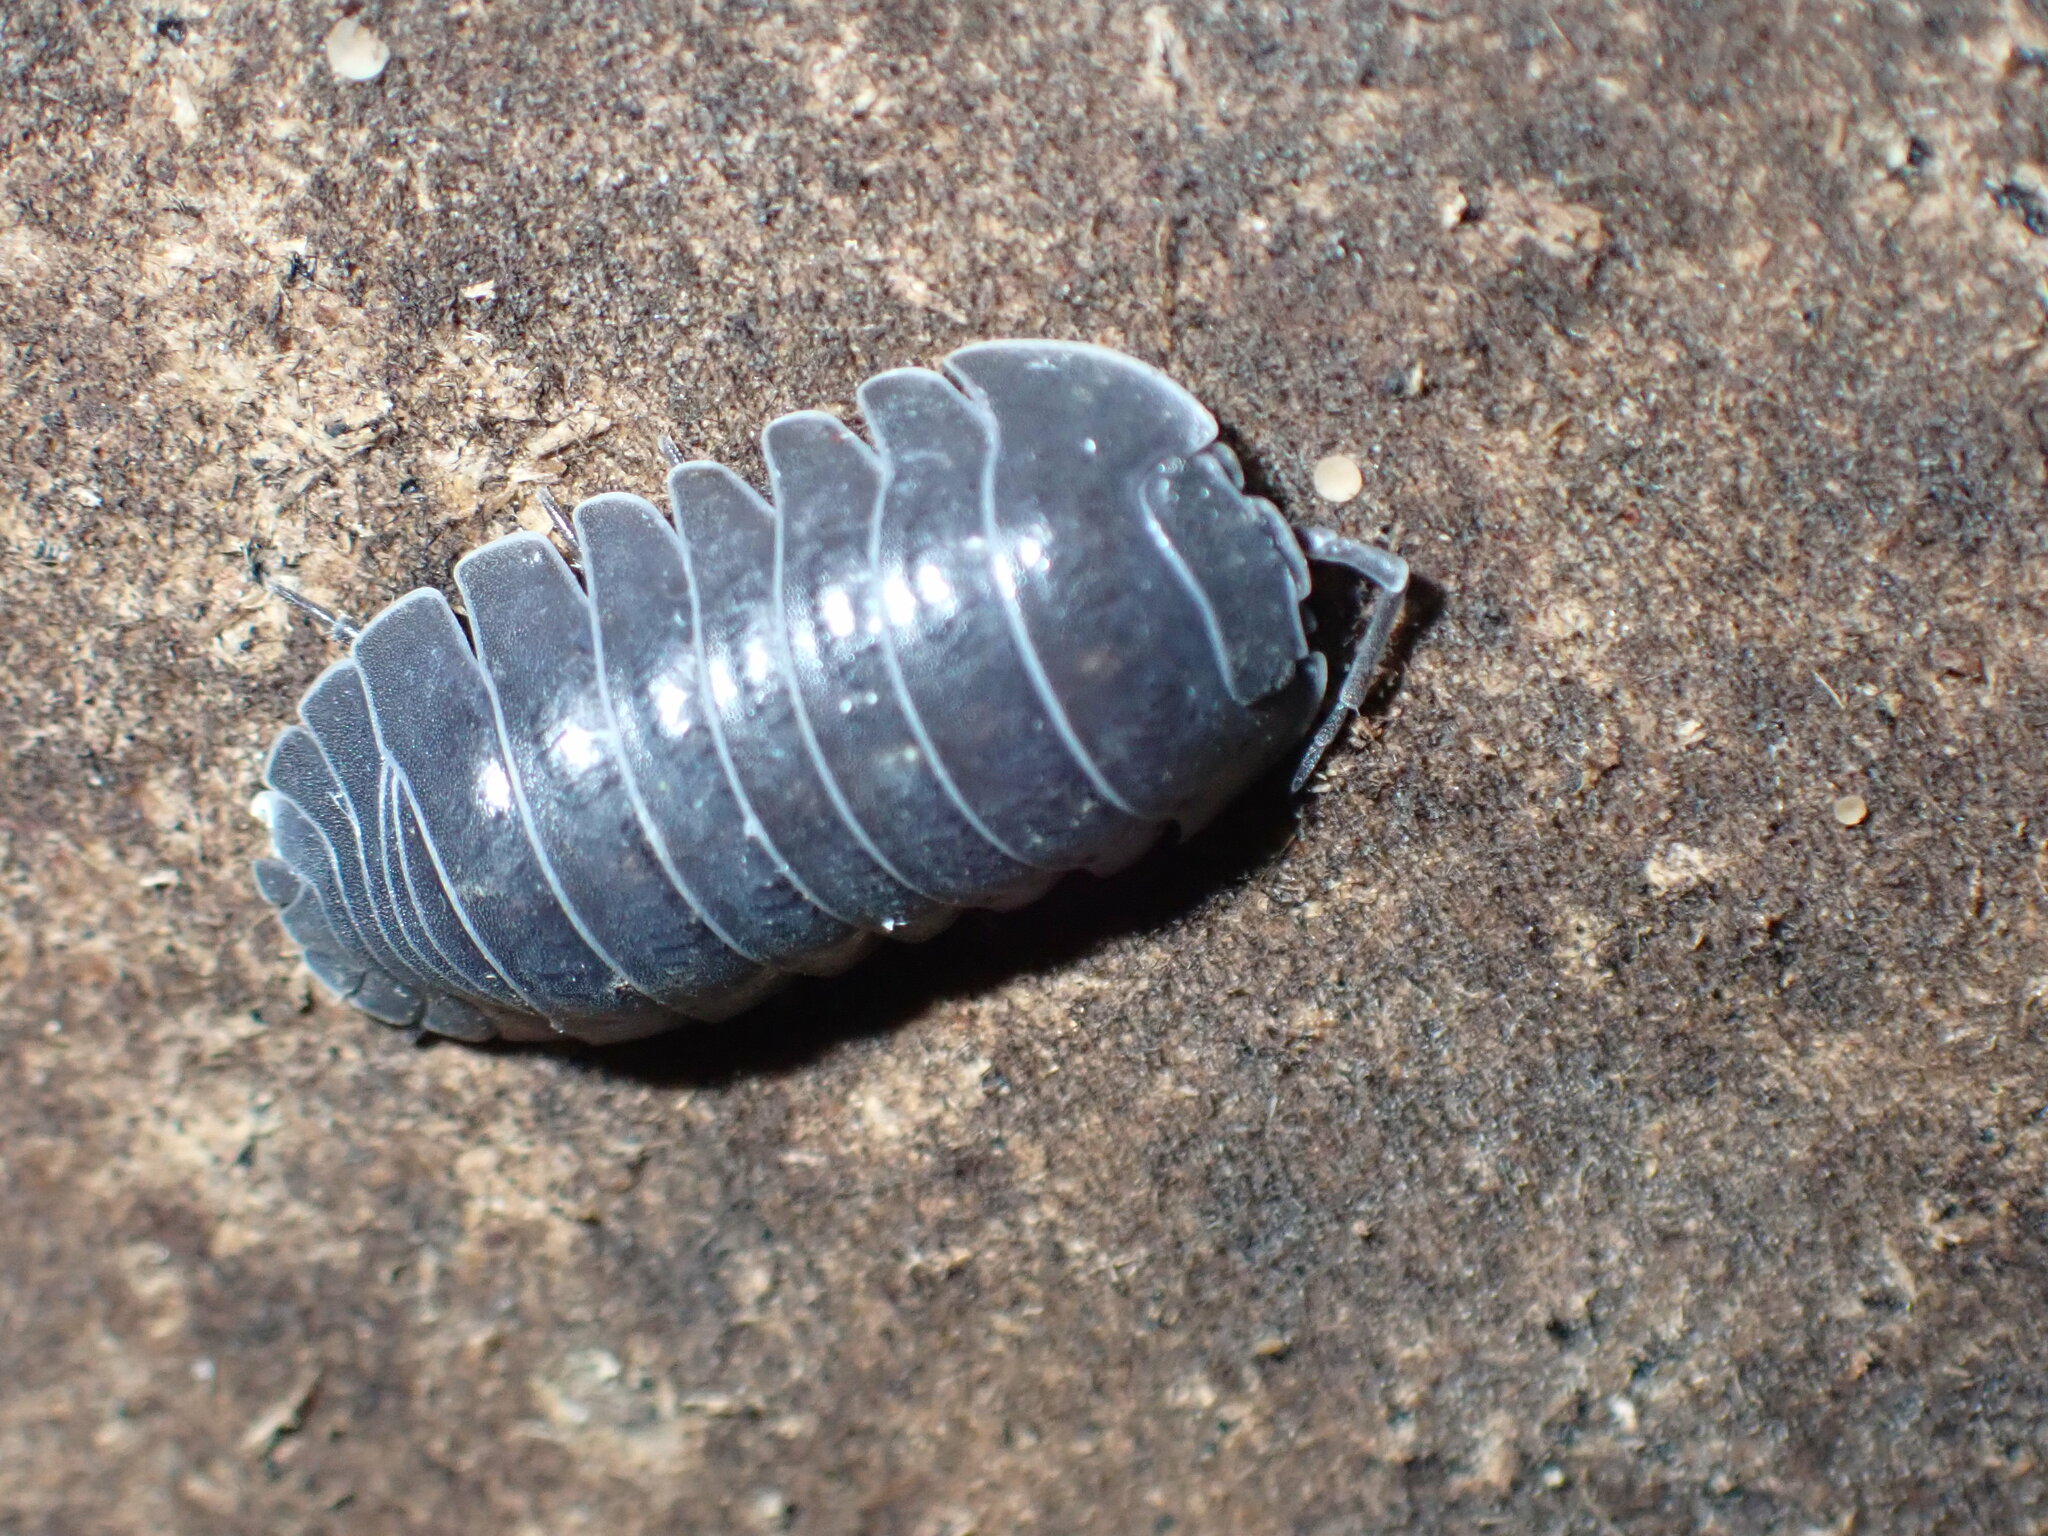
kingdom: Animalia
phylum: Arthropoda
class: Malacostraca
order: Isopoda
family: Armadillidiidae
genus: Armadillidium
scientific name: Armadillidium depressum
